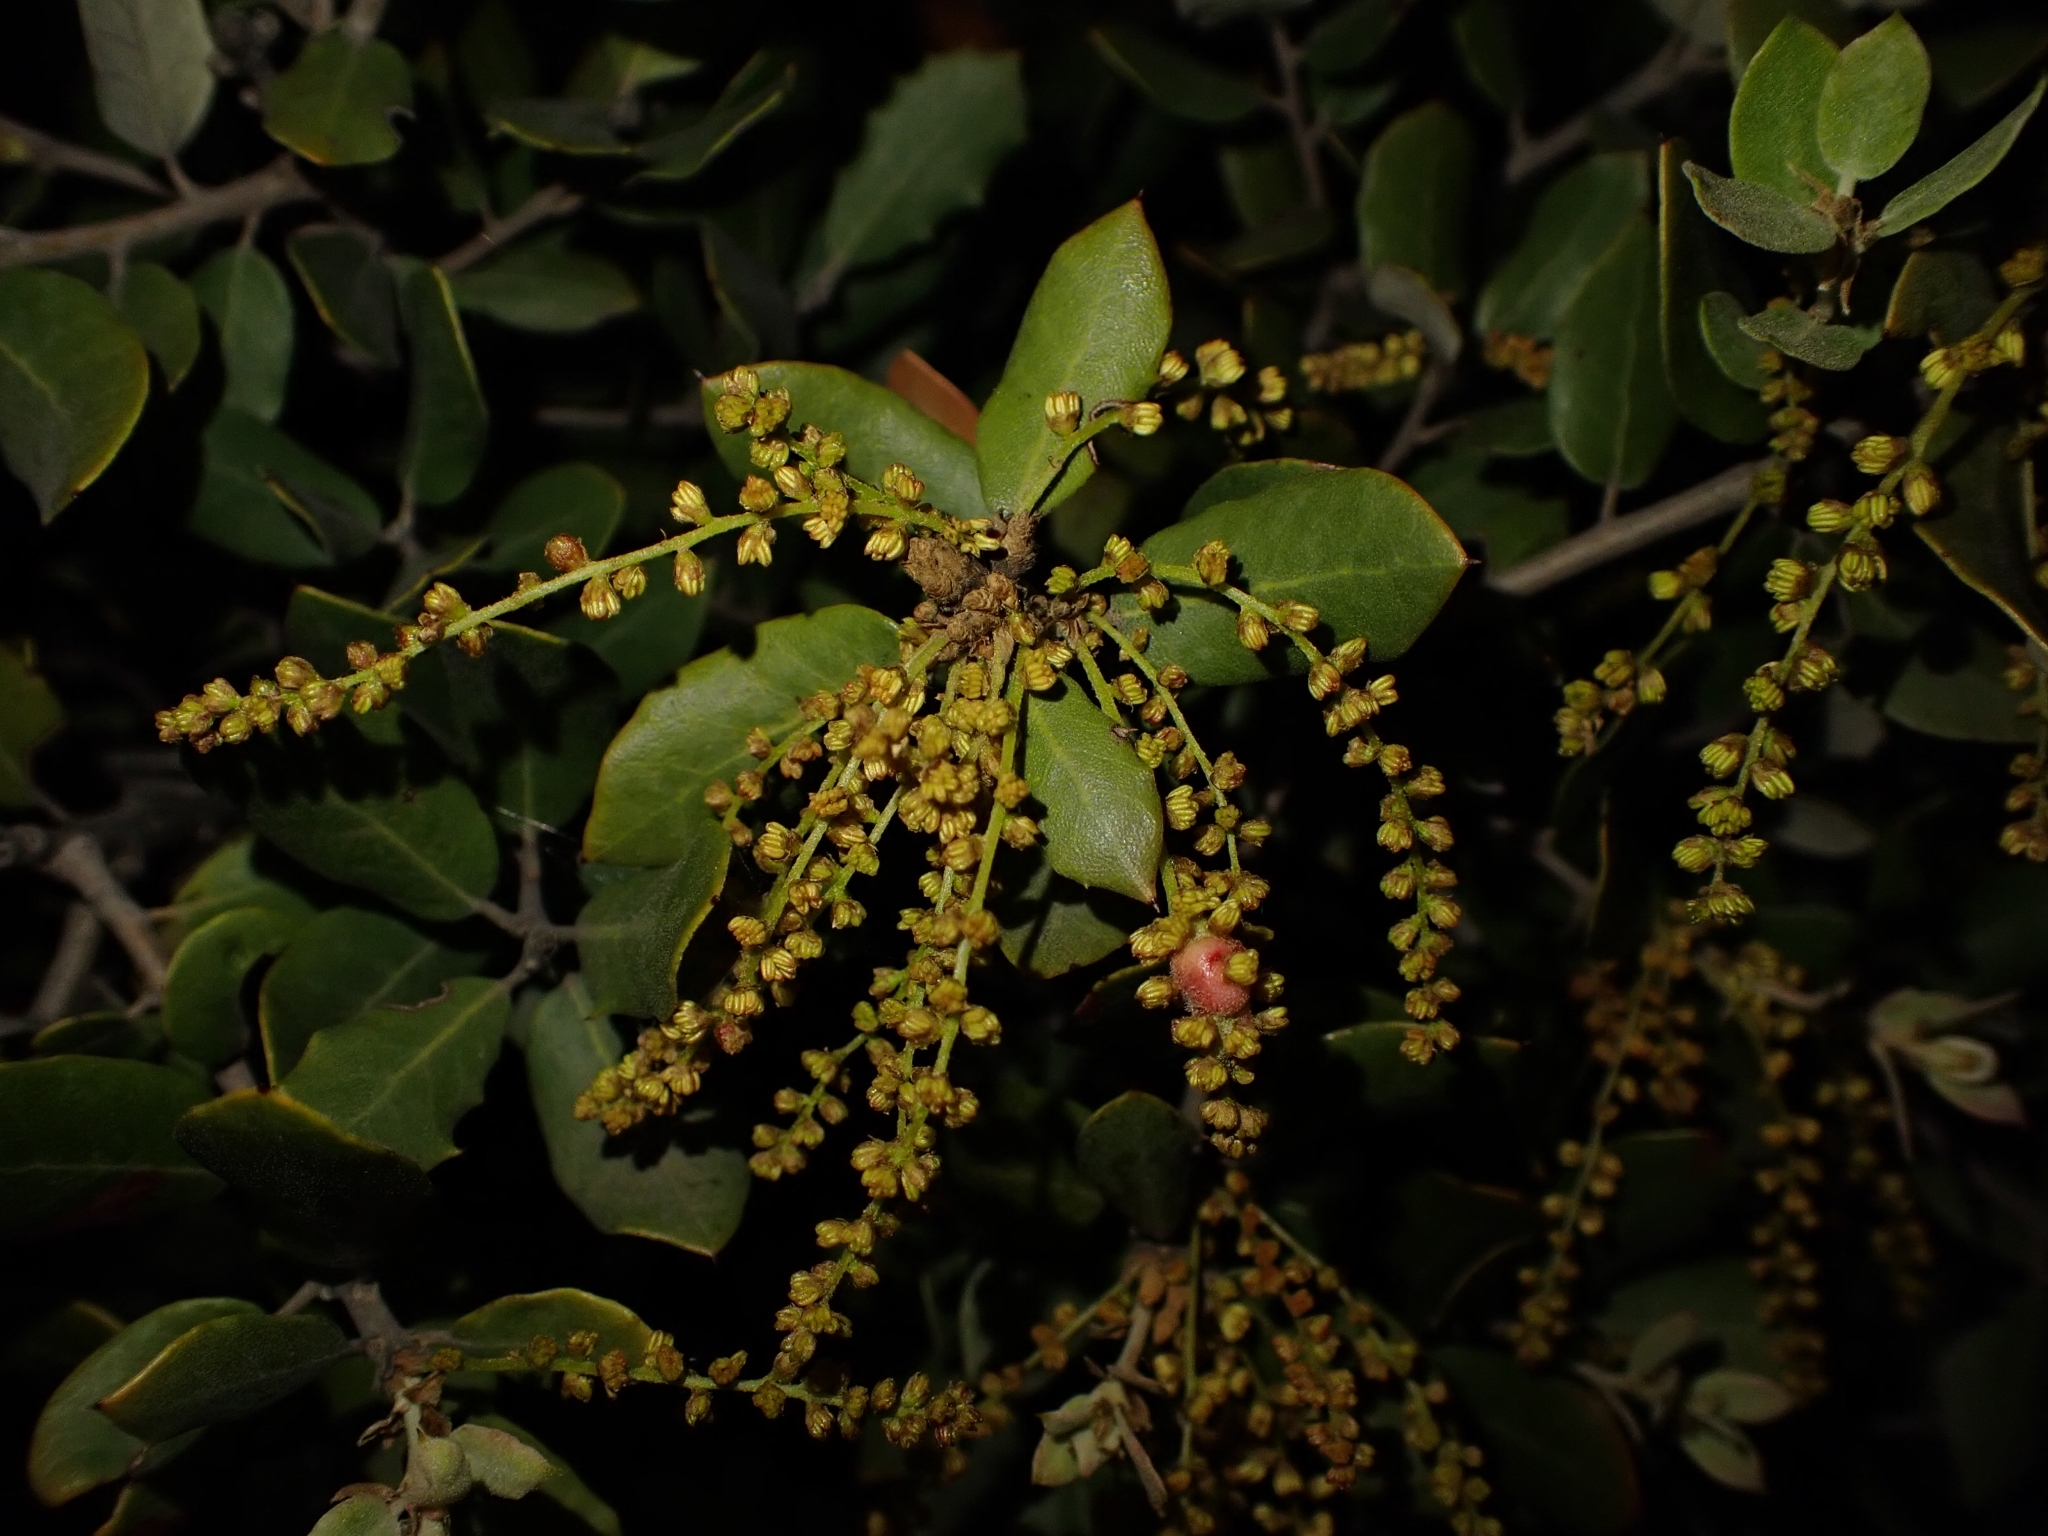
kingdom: Plantae
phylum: Tracheophyta
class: Magnoliopsida
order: Fagales
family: Fagaceae
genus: Quercus
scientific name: Quercus rotundifolia
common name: Holm oak
